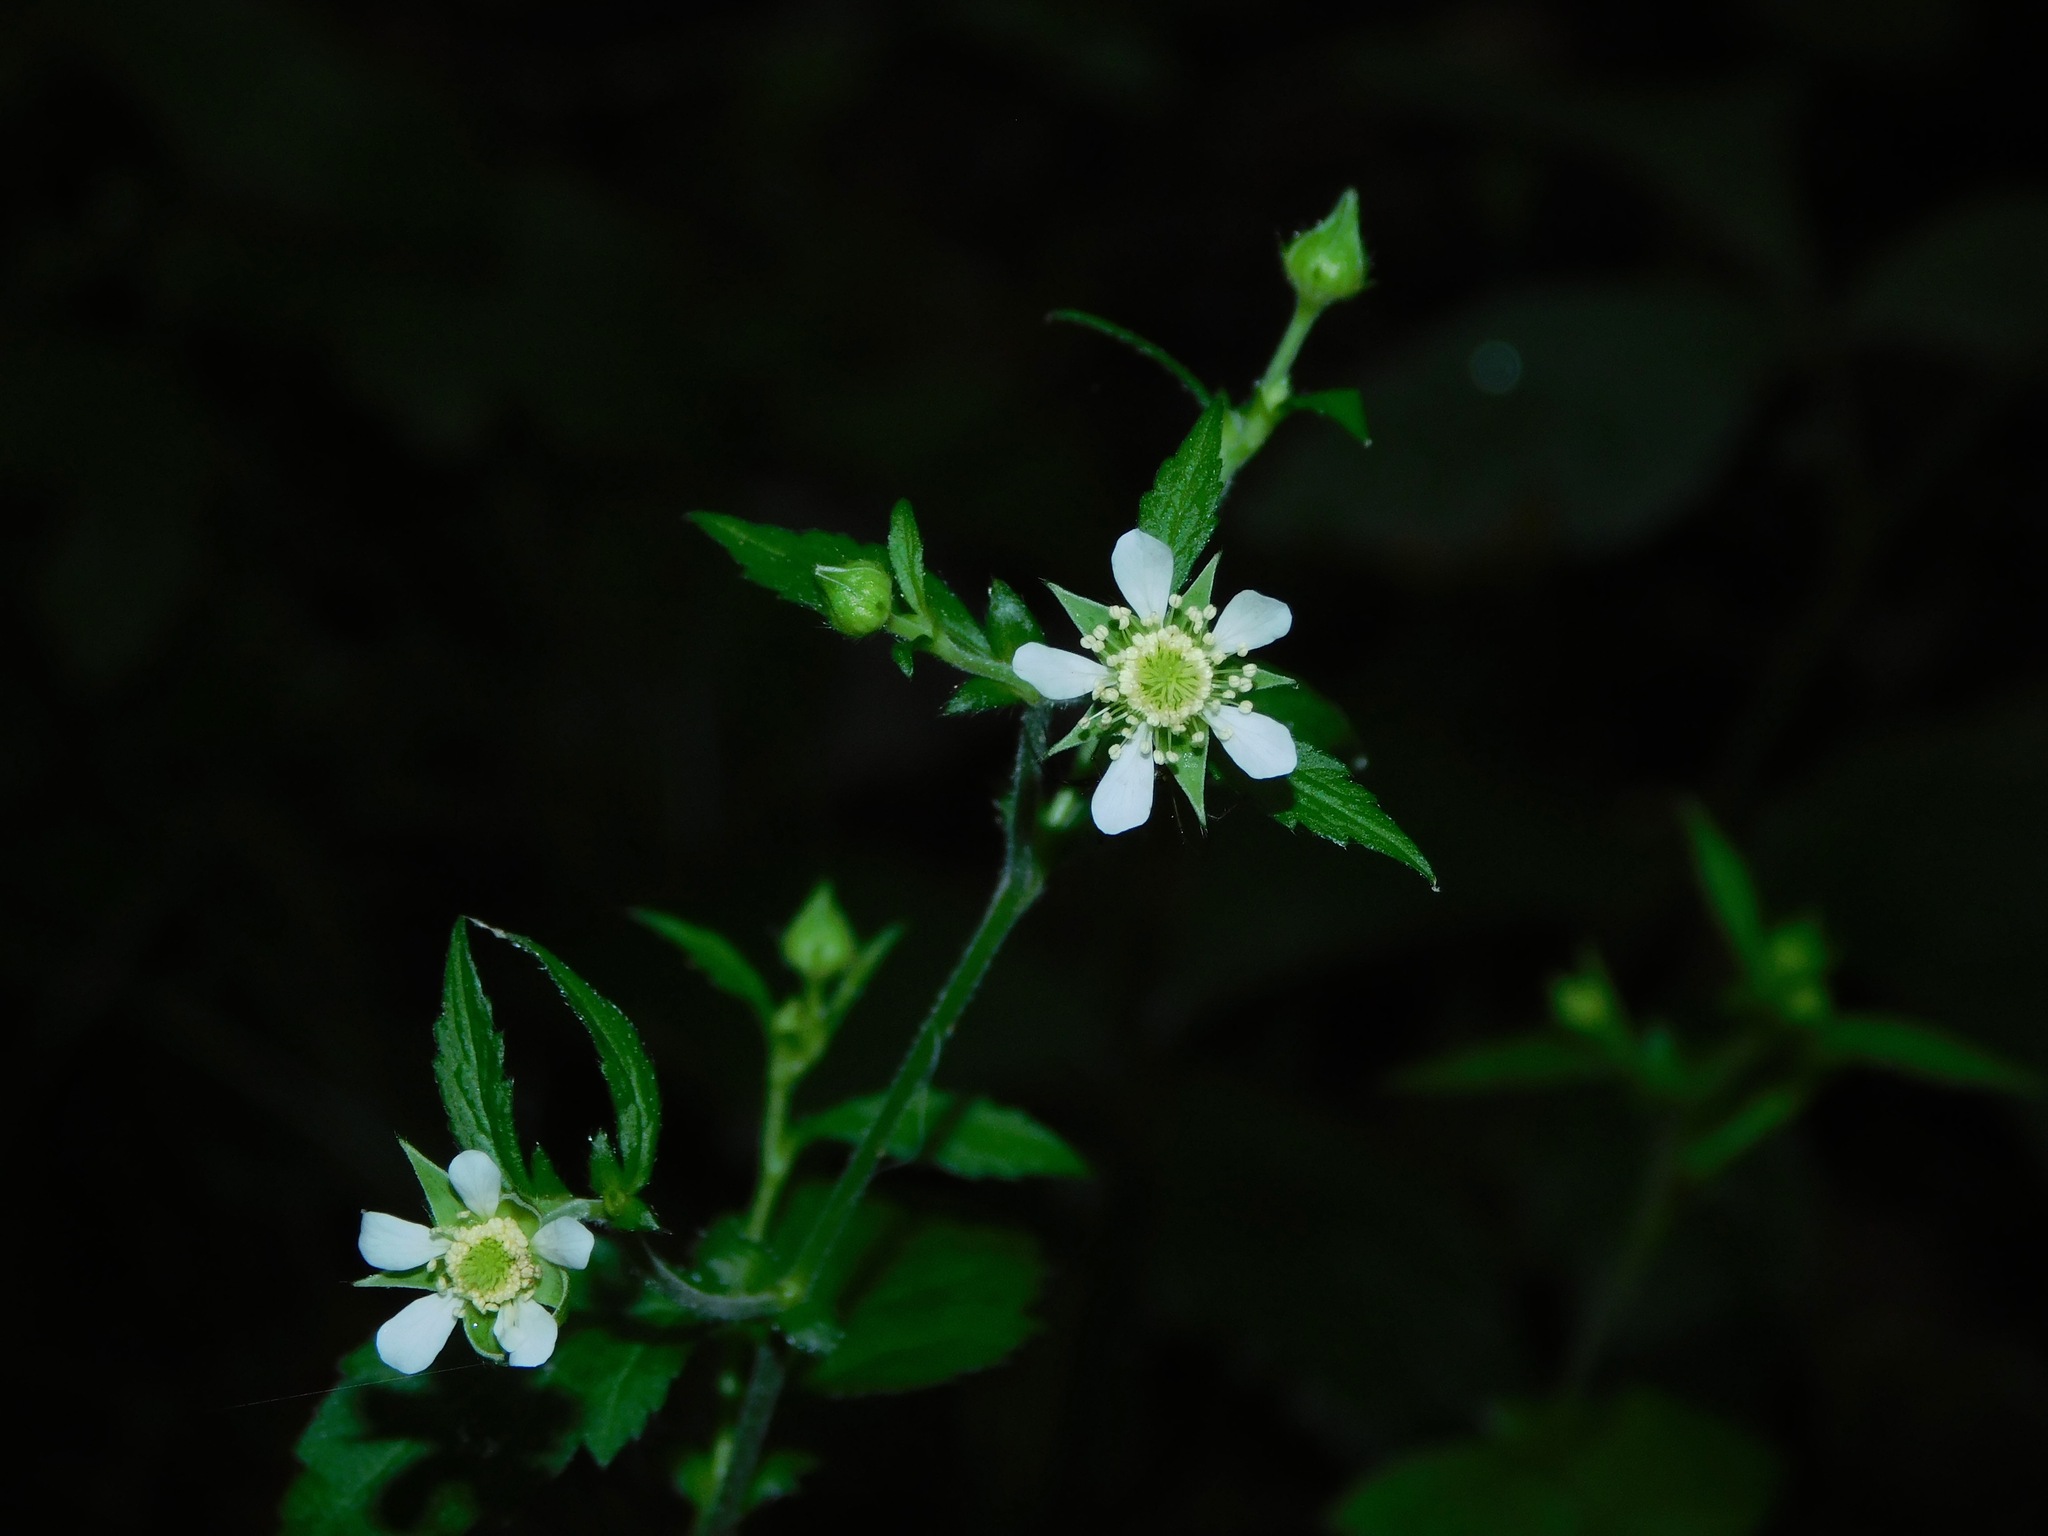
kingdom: Plantae
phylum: Tracheophyta
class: Magnoliopsida
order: Rosales
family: Rosaceae
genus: Geum
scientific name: Geum canadense
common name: White avens
